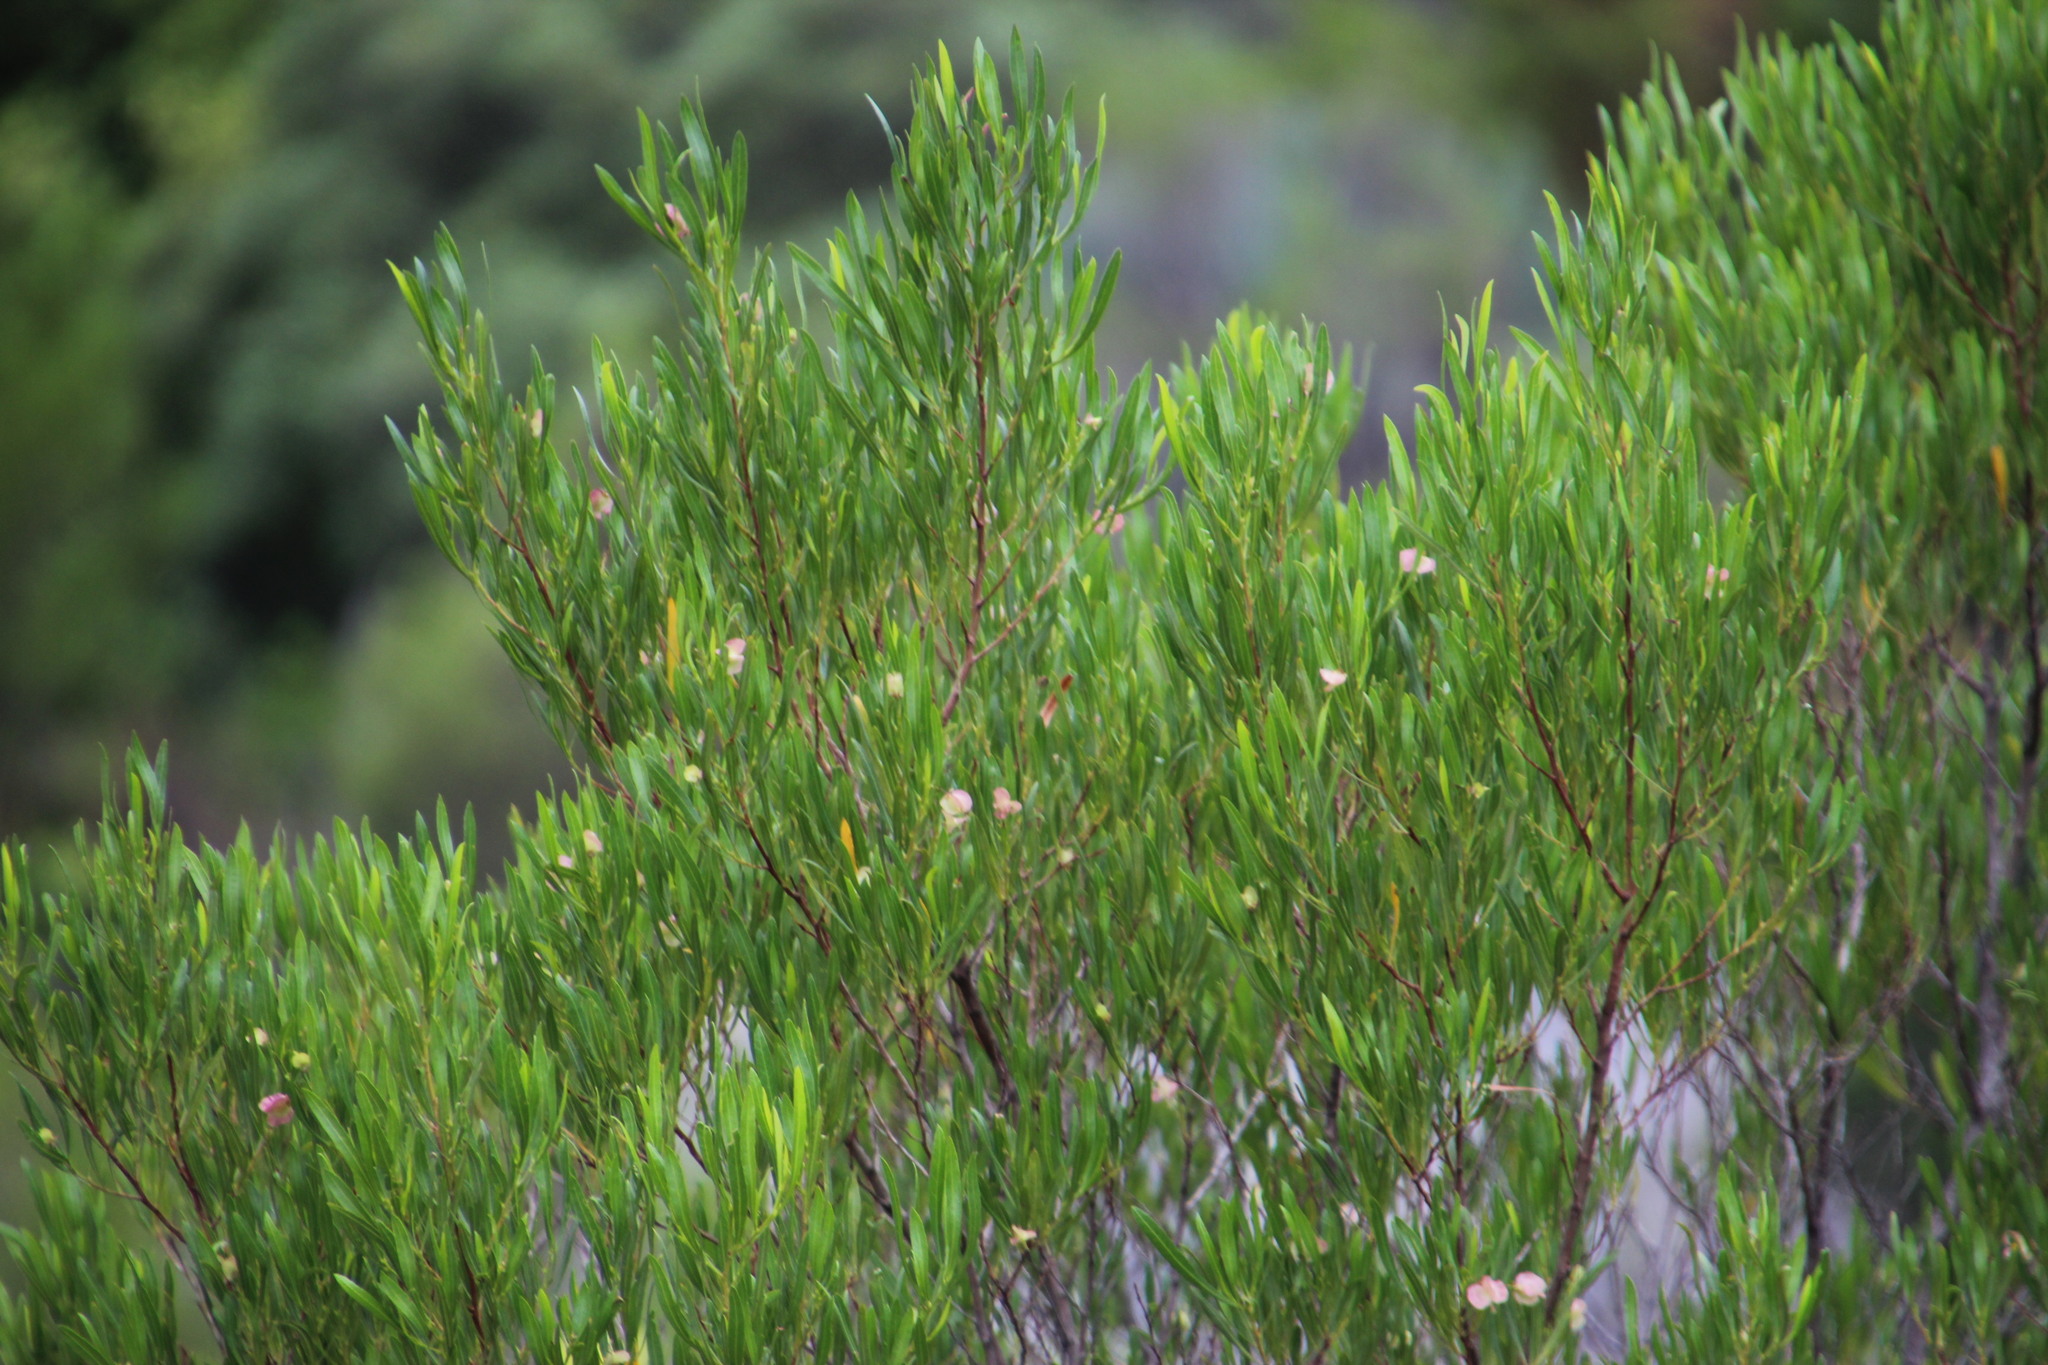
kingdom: Plantae
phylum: Tracheophyta
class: Magnoliopsida
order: Sapindales
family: Sapindaceae
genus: Dodonaea
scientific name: Dodonaea viscosa
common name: Hopbush
